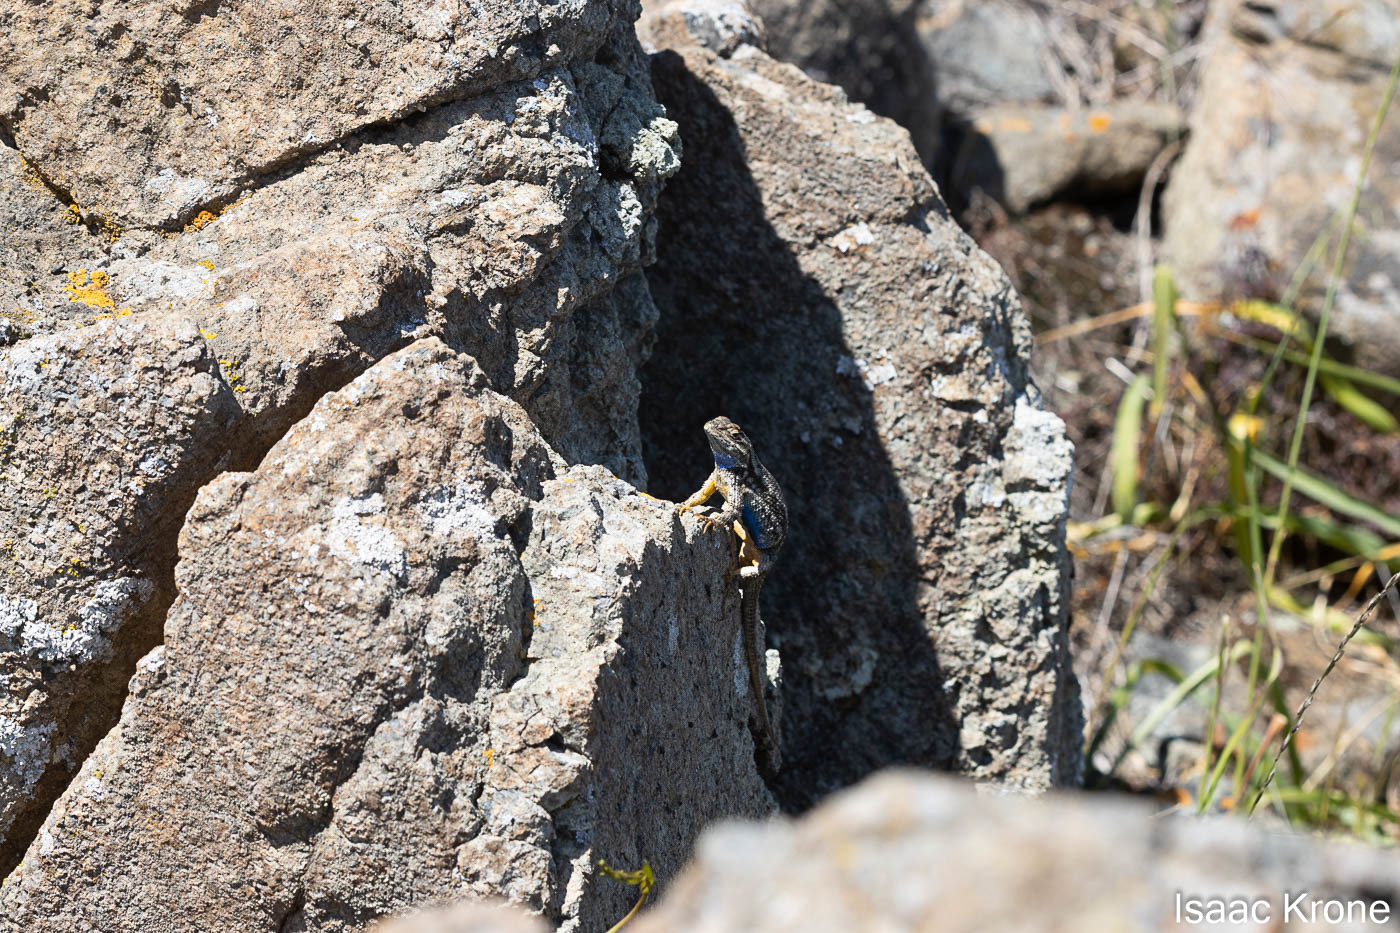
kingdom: Animalia
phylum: Chordata
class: Squamata
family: Phrynosomatidae
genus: Sceloporus
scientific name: Sceloporus occidentalis
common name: Western fence lizard
